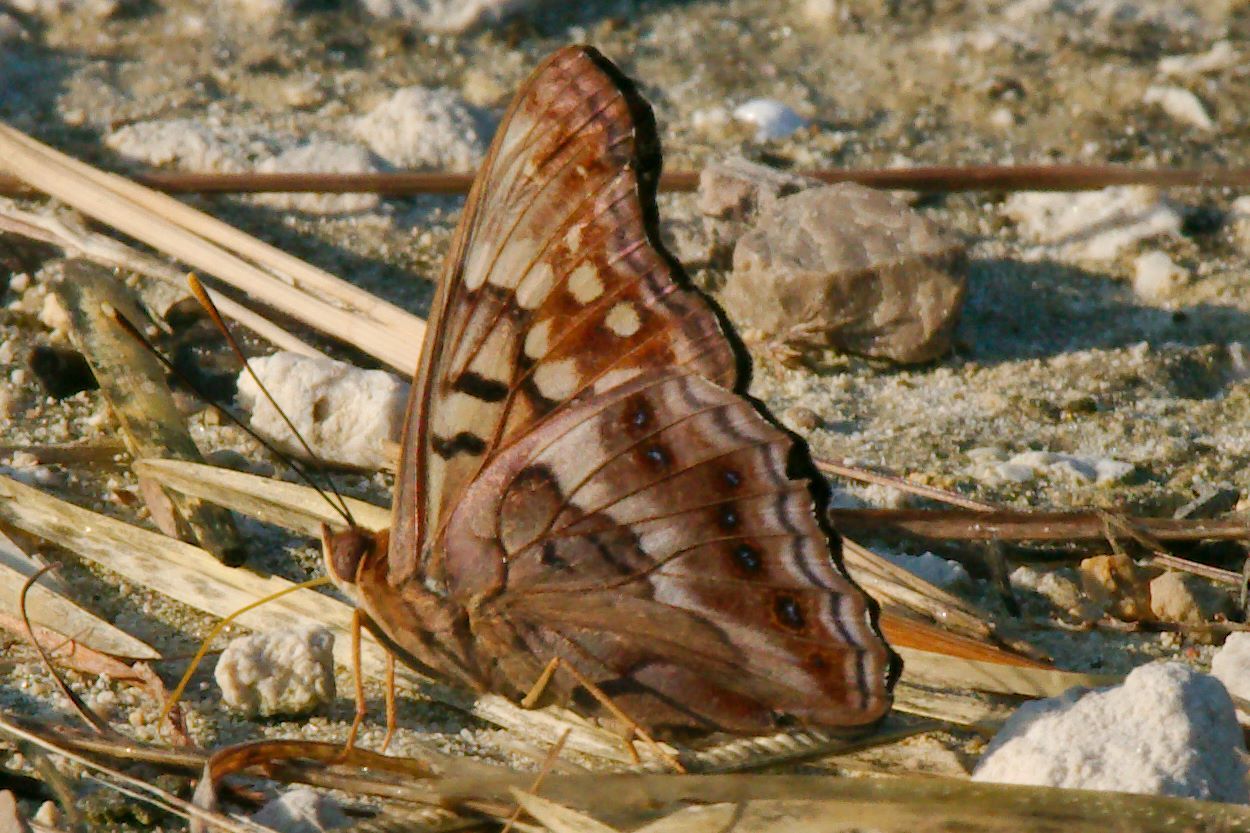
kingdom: Animalia
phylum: Arthropoda
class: Insecta
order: Lepidoptera
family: Nymphalidae
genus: Asterocampa
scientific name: Asterocampa clyton
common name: Tawny emperor
